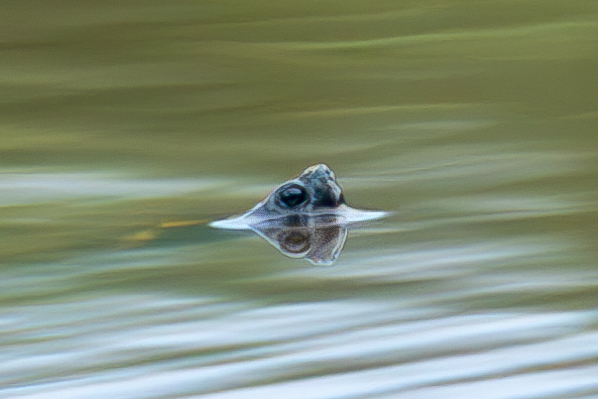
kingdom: Animalia
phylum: Chordata
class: Testudines
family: Emydidae
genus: Trachemys
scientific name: Trachemys scripta
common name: Slider
